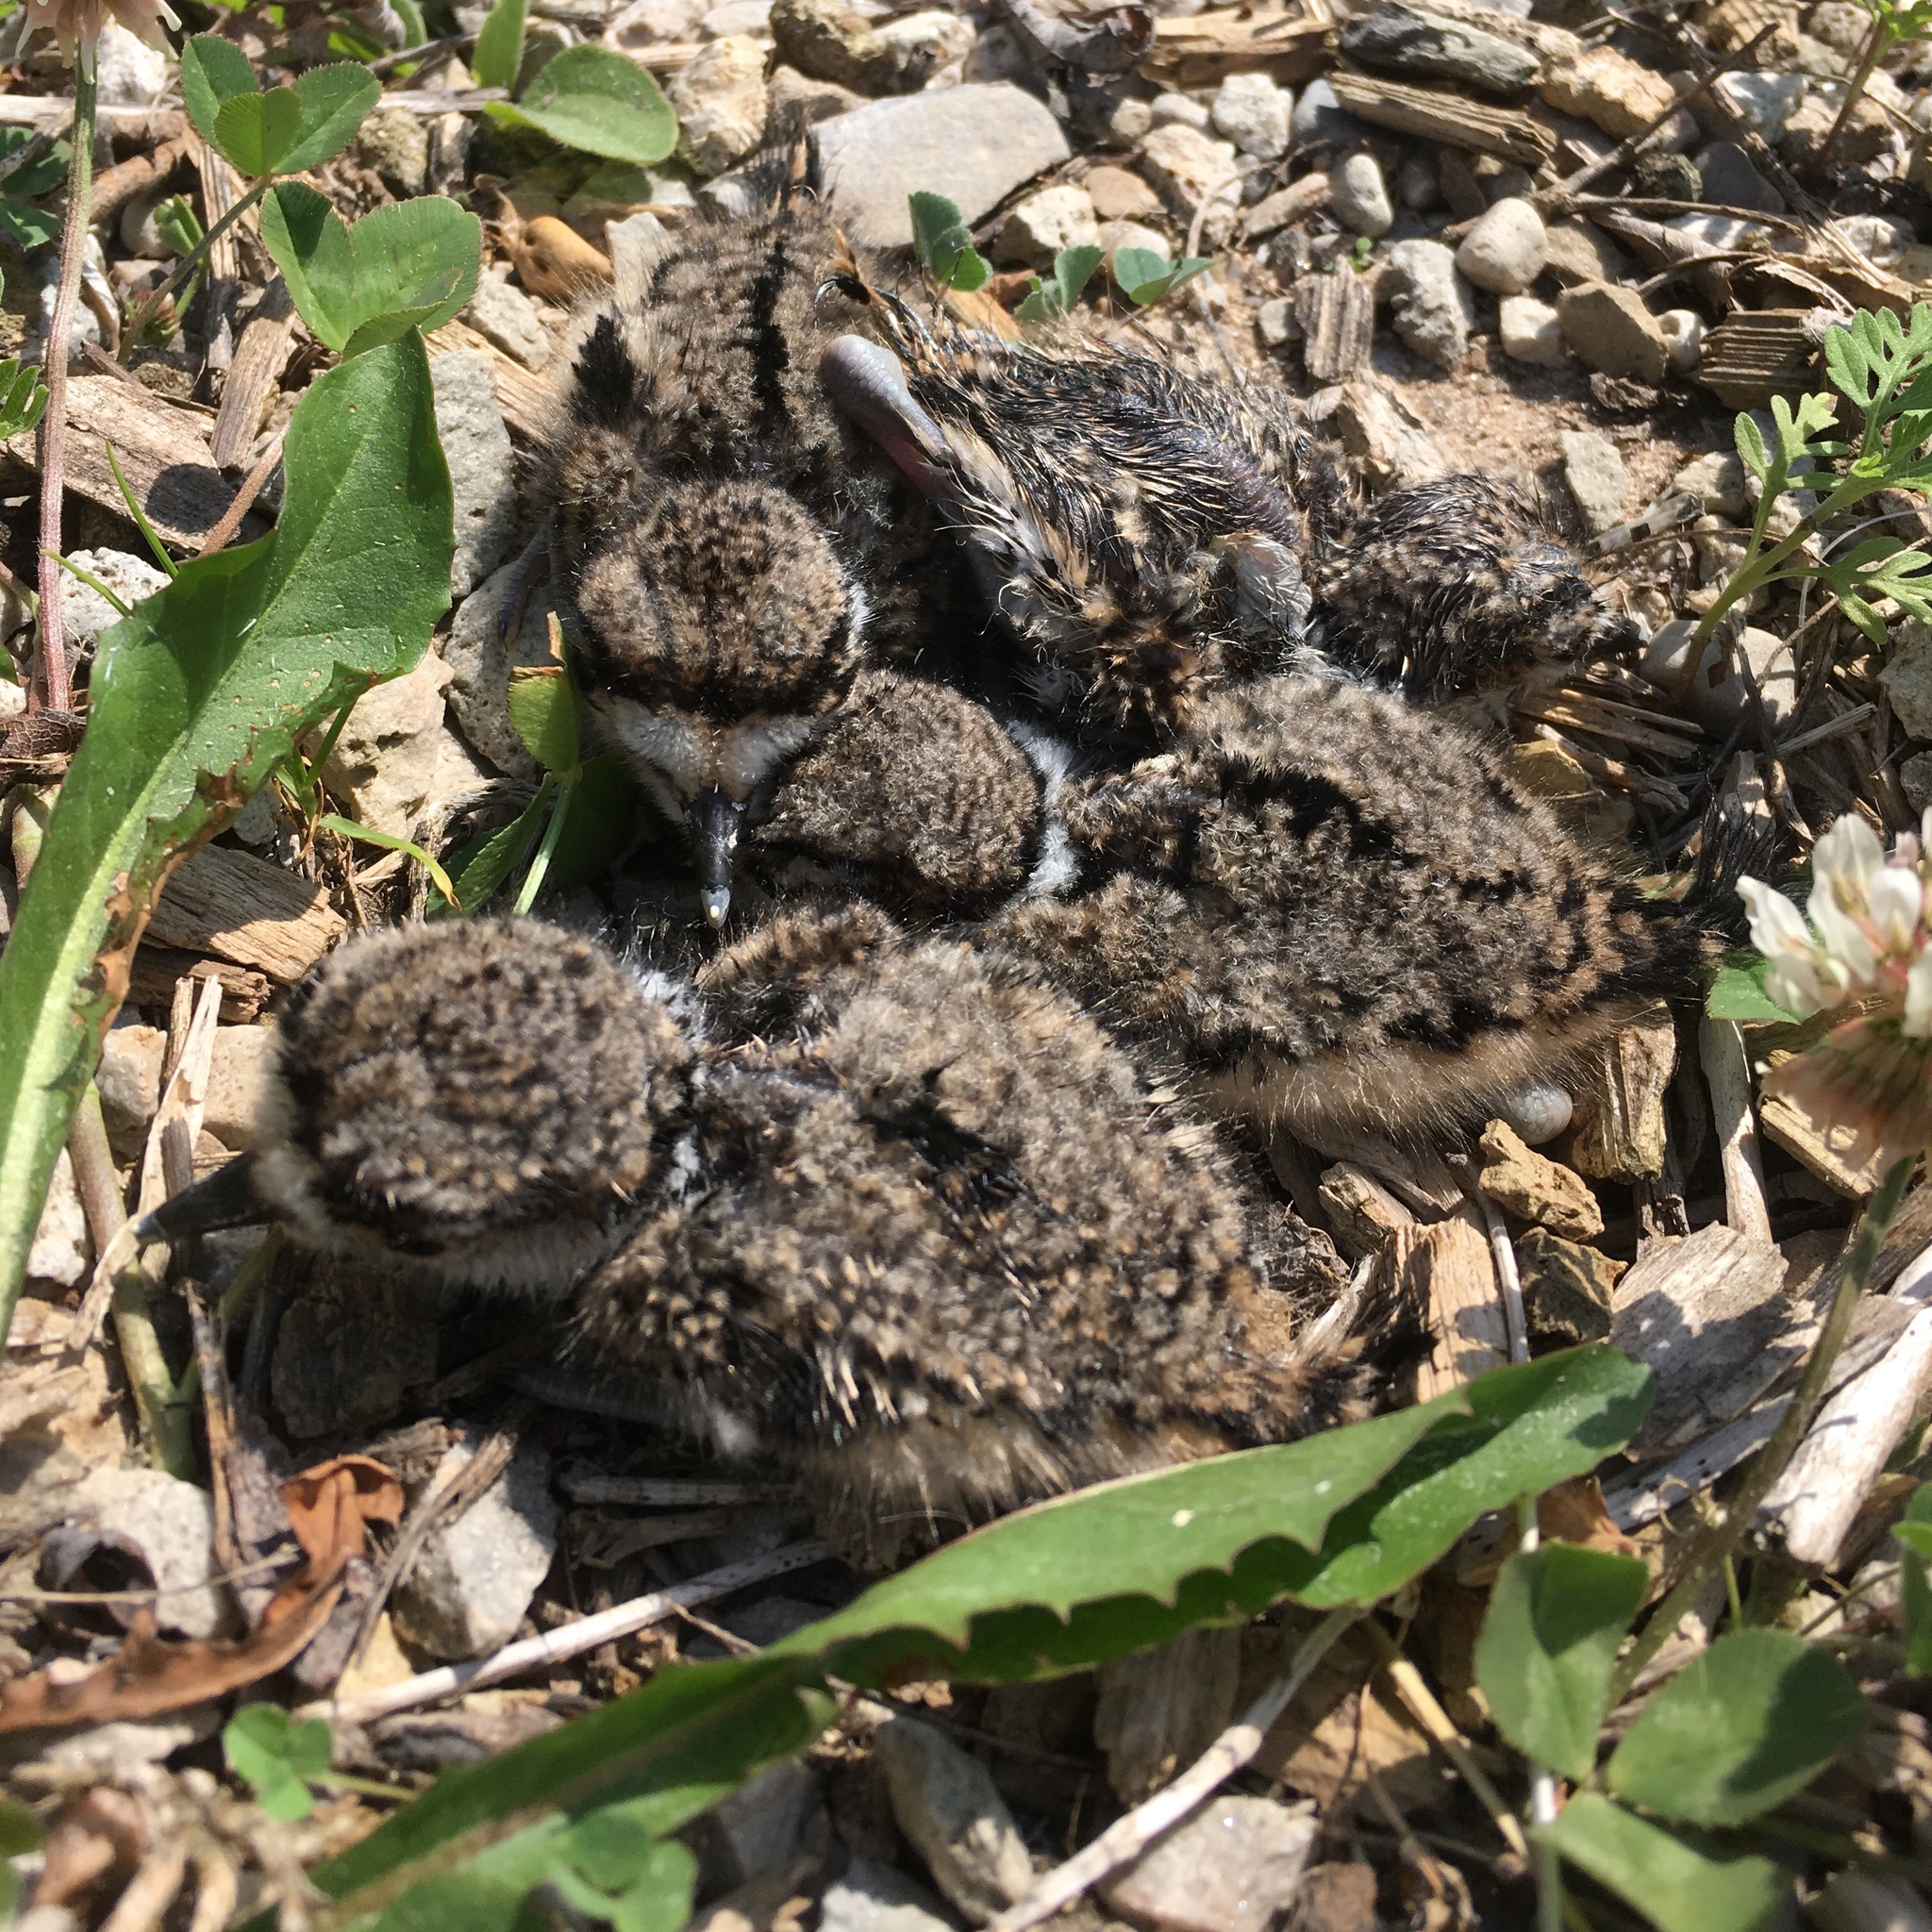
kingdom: Animalia
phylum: Chordata
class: Aves
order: Charadriiformes
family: Charadriidae
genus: Charadrius
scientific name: Charadrius vociferus
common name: Killdeer
